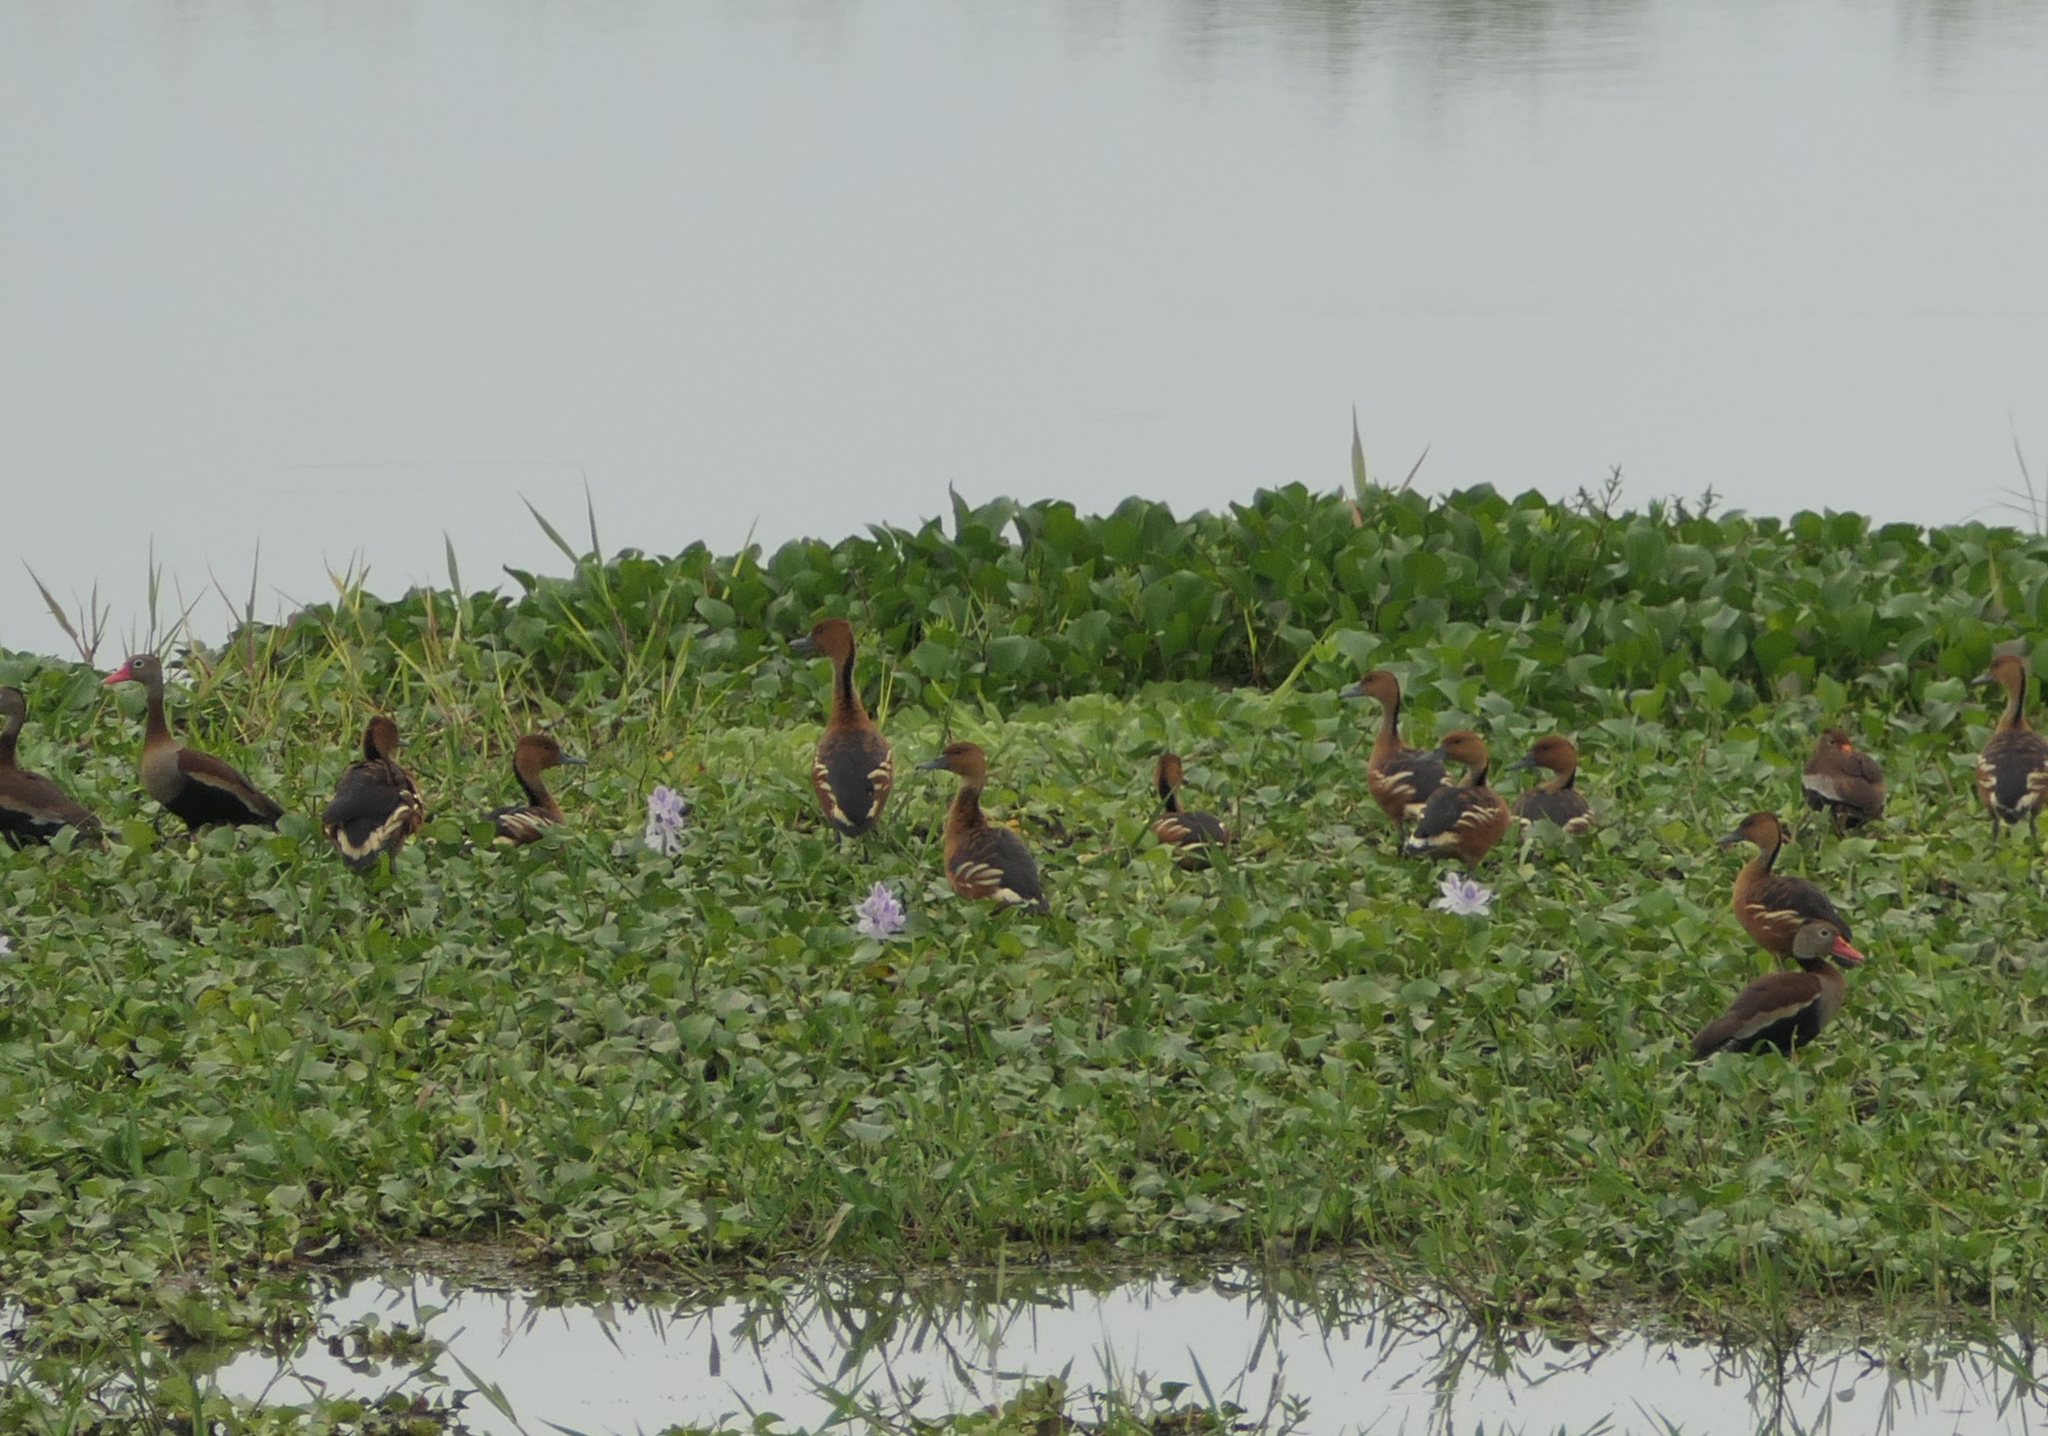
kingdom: Animalia
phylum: Chordata
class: Aves
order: Anseriformes
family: Anatidae
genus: Dendrocygna
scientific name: Dendrocygna bicolor
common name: Fulvous whistling duck
